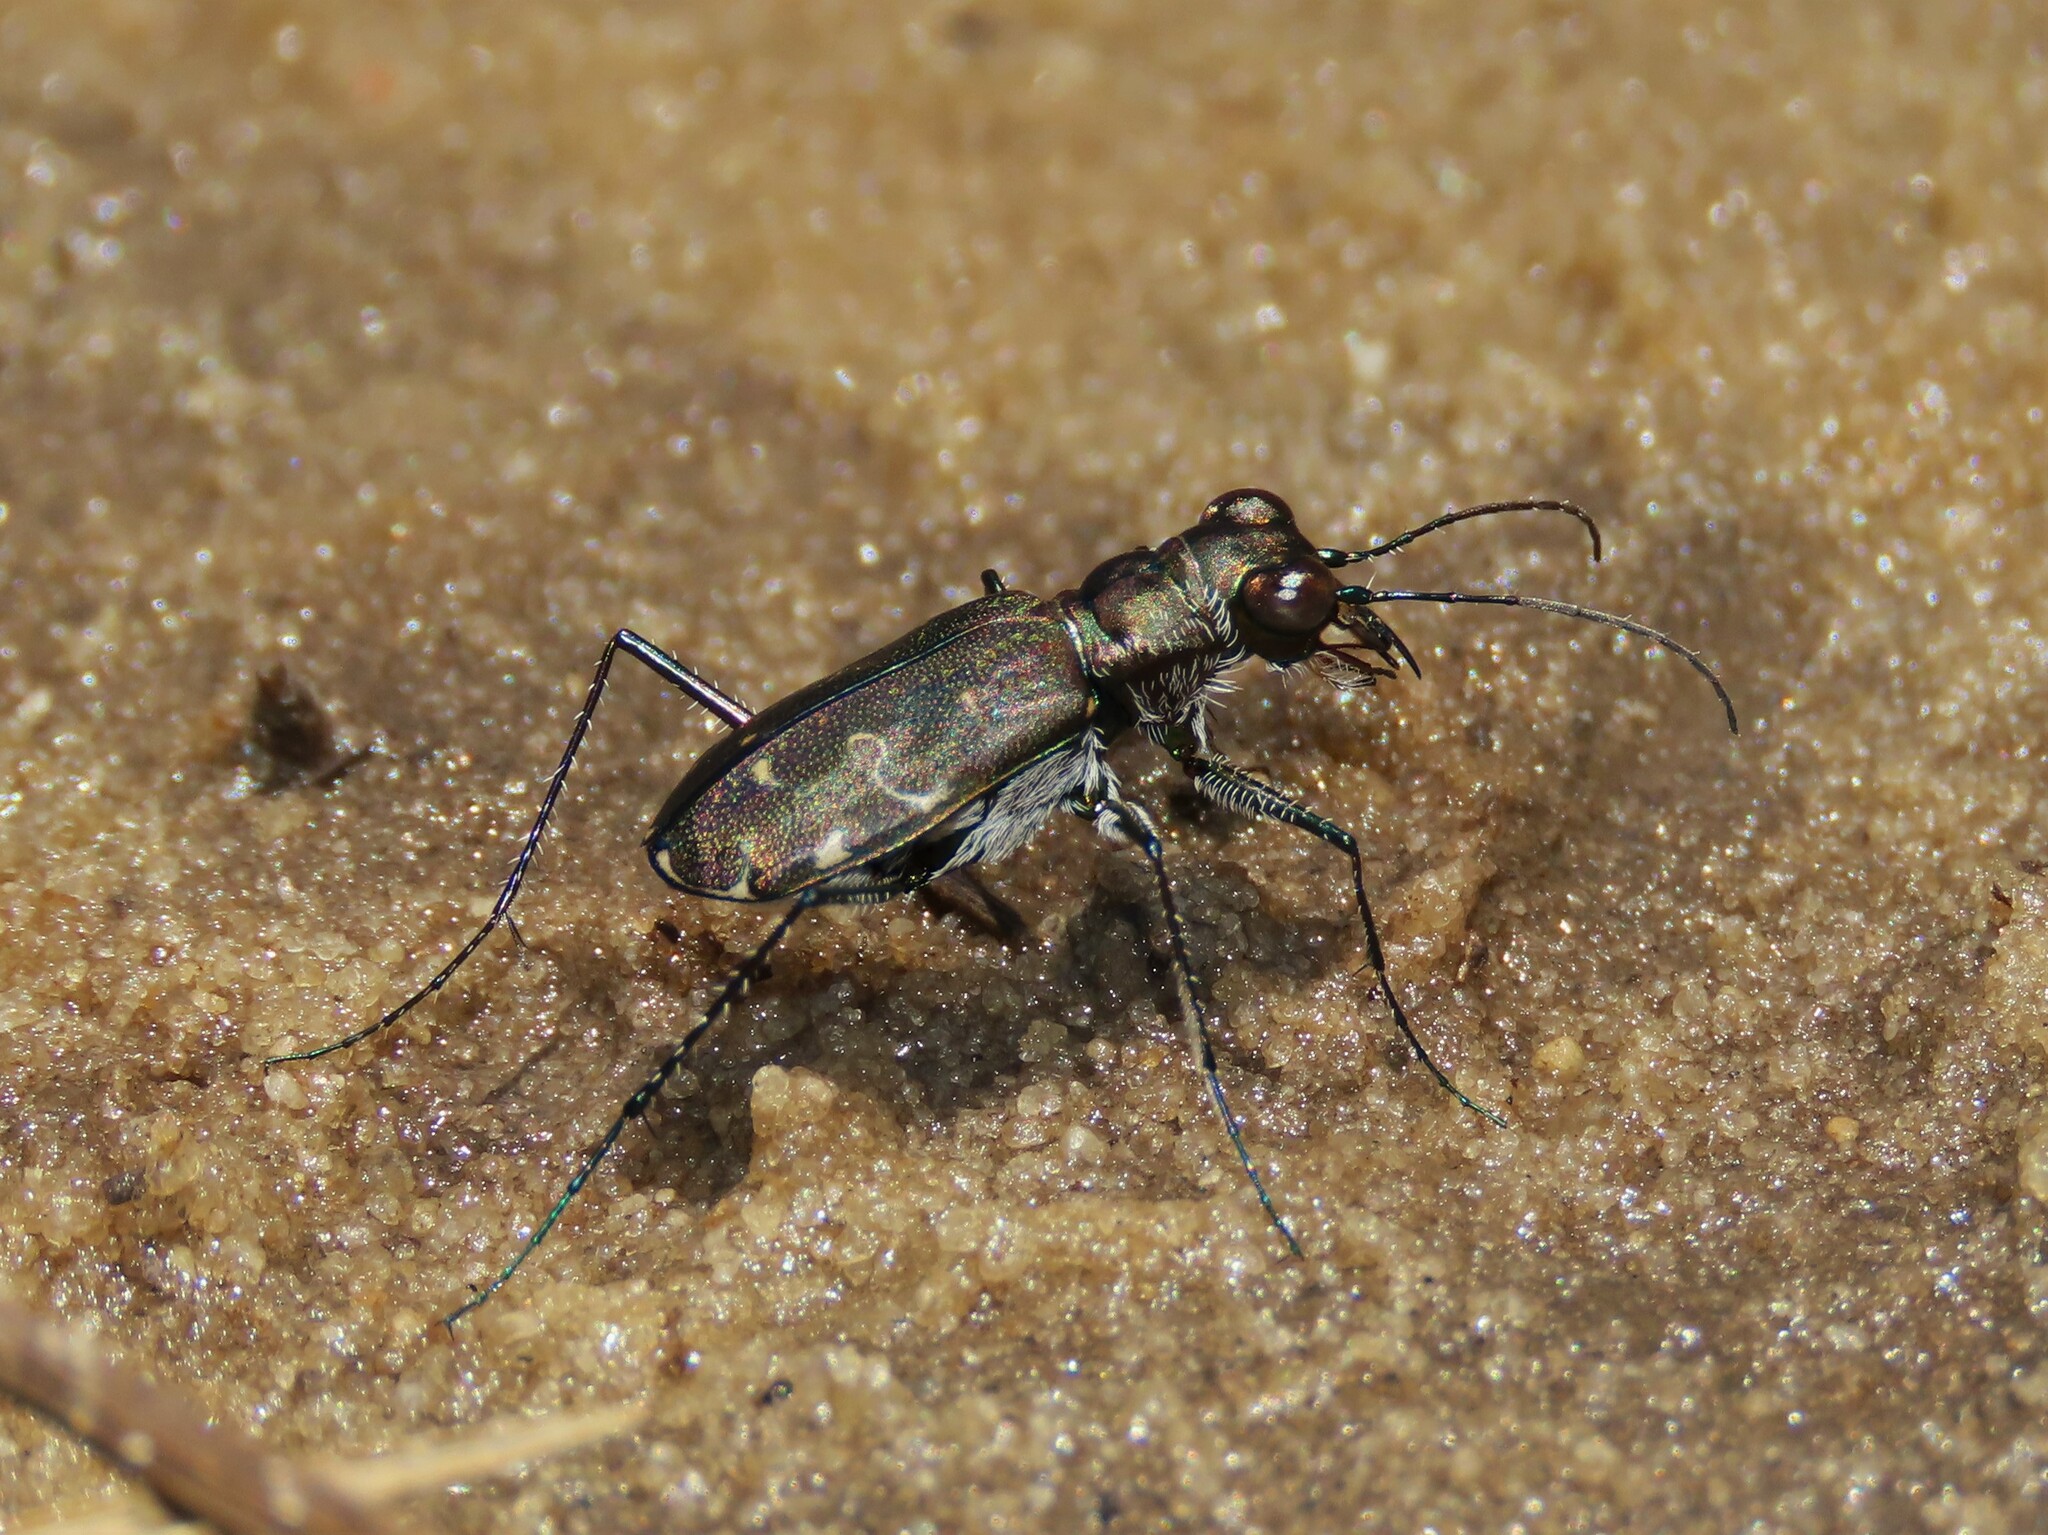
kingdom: Animalia
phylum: Arthropoda
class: Insecta
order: Coleoptera
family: Carabidae
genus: Cicindela
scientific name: Cicindela trifasciata
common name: Mudflat tiger beetle
